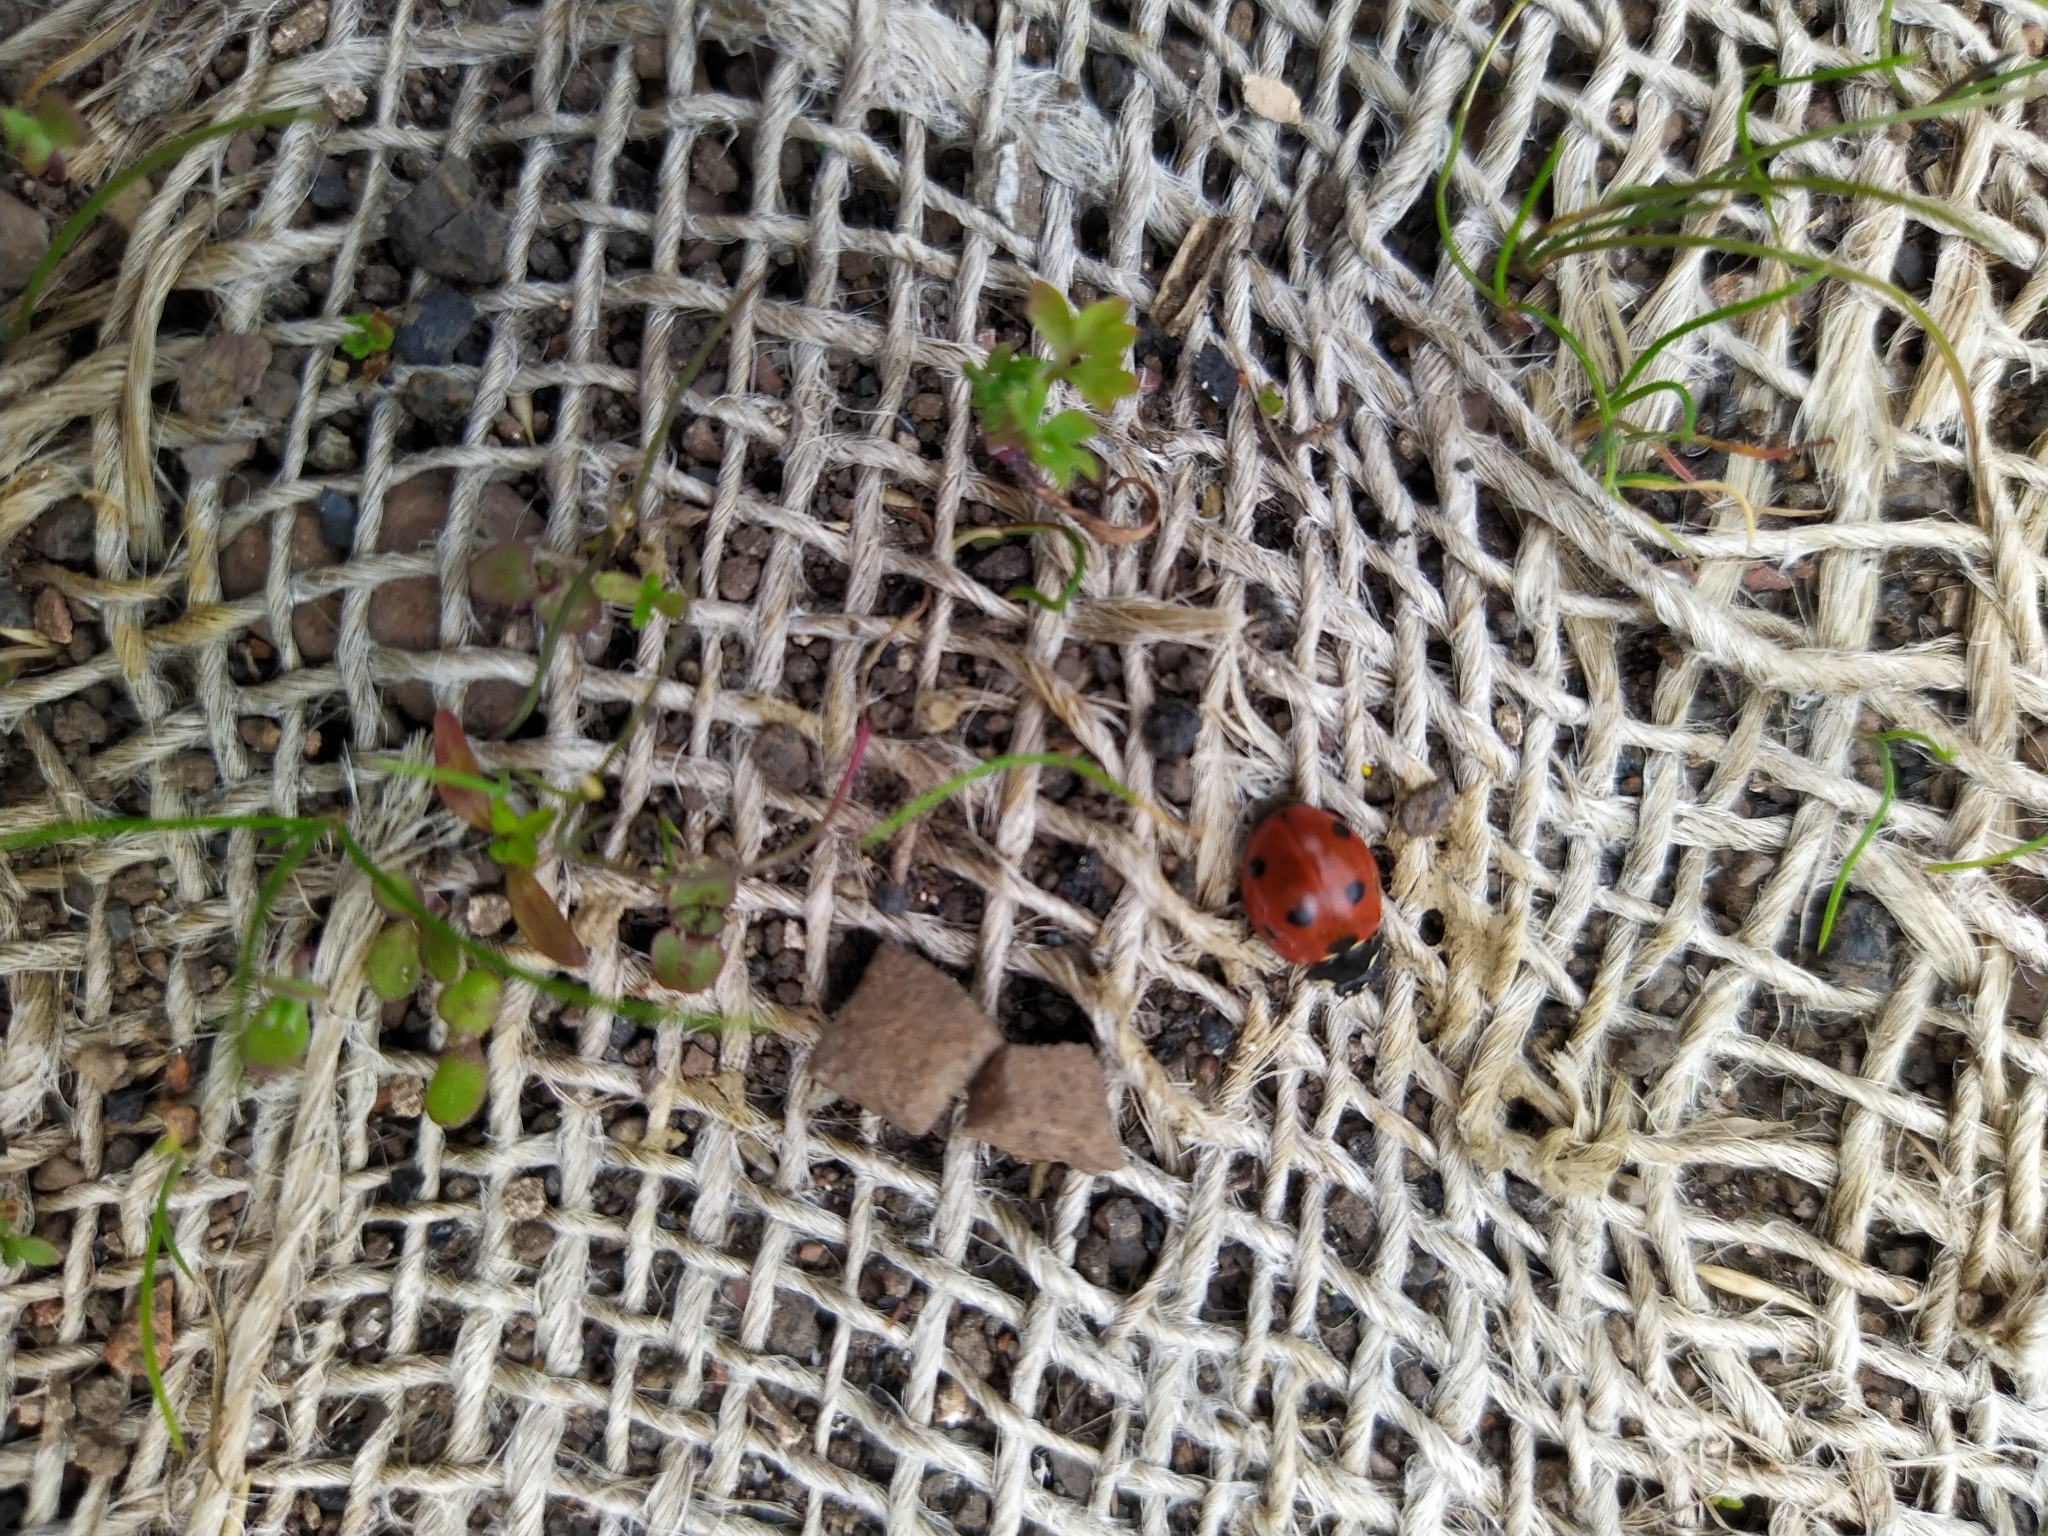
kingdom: Animalia
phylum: Arthropoda
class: Insecta
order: Coleoptera
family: Coccinellidae
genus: Coccinella
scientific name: Coccinella septempunctata
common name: Sevenspotted lady beetle
